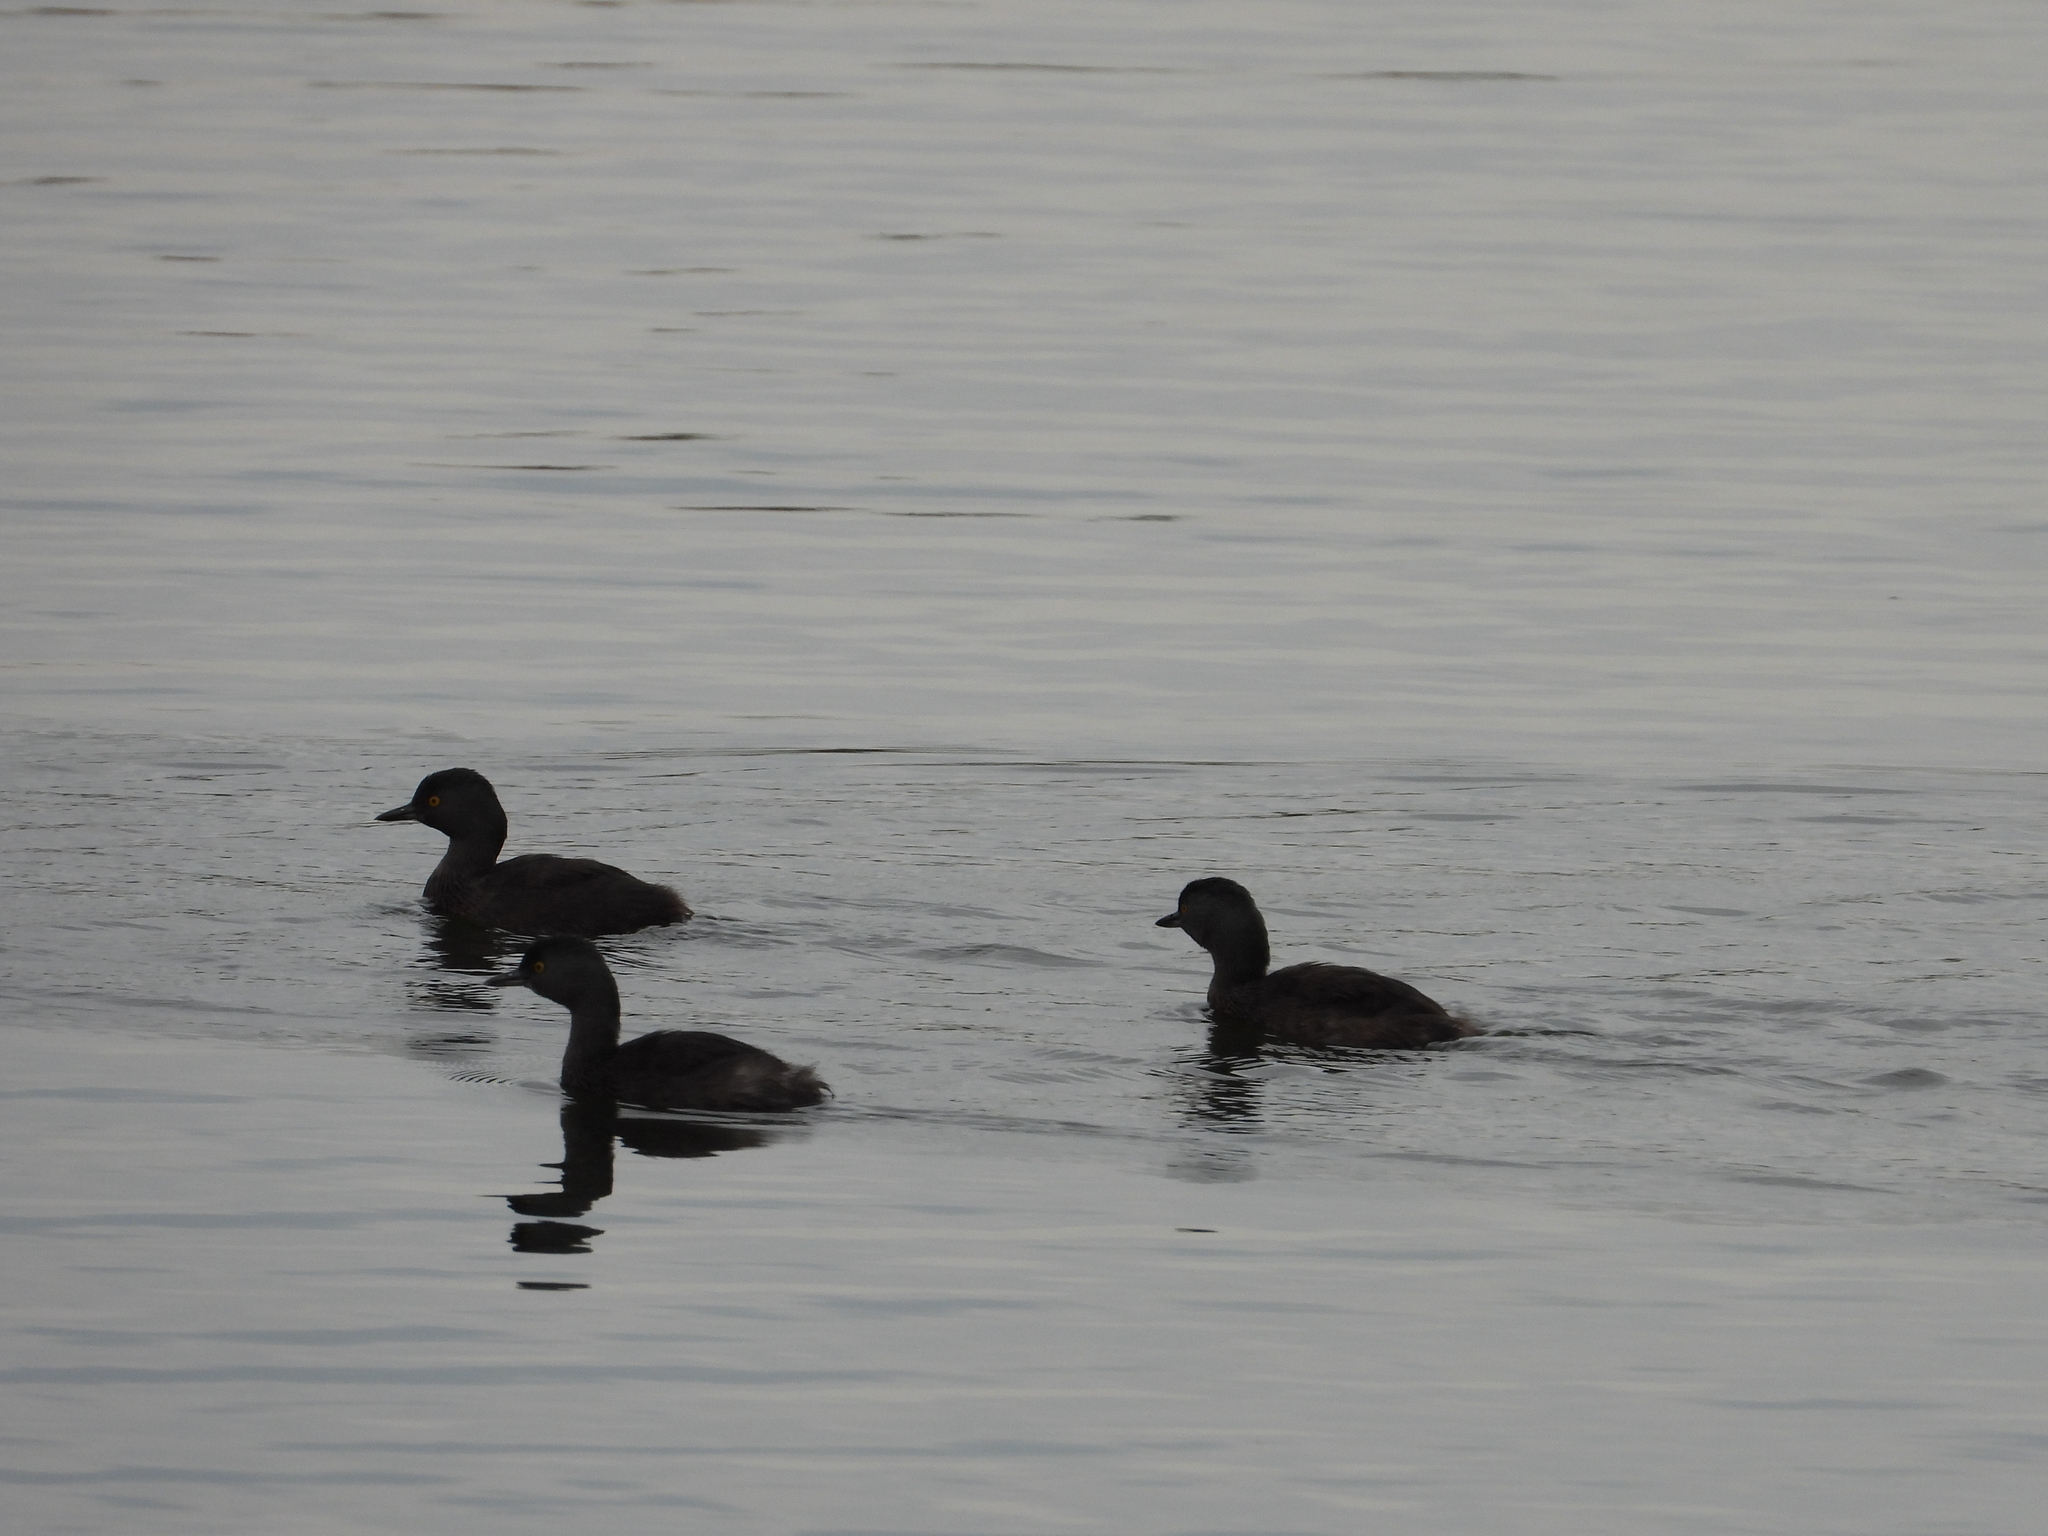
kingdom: Animalia
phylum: Chordata
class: Aves
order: Podicipediformes
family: Podicipedidae
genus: Tachybaptus
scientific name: Tachybaptus dominicus
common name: Least grebe
